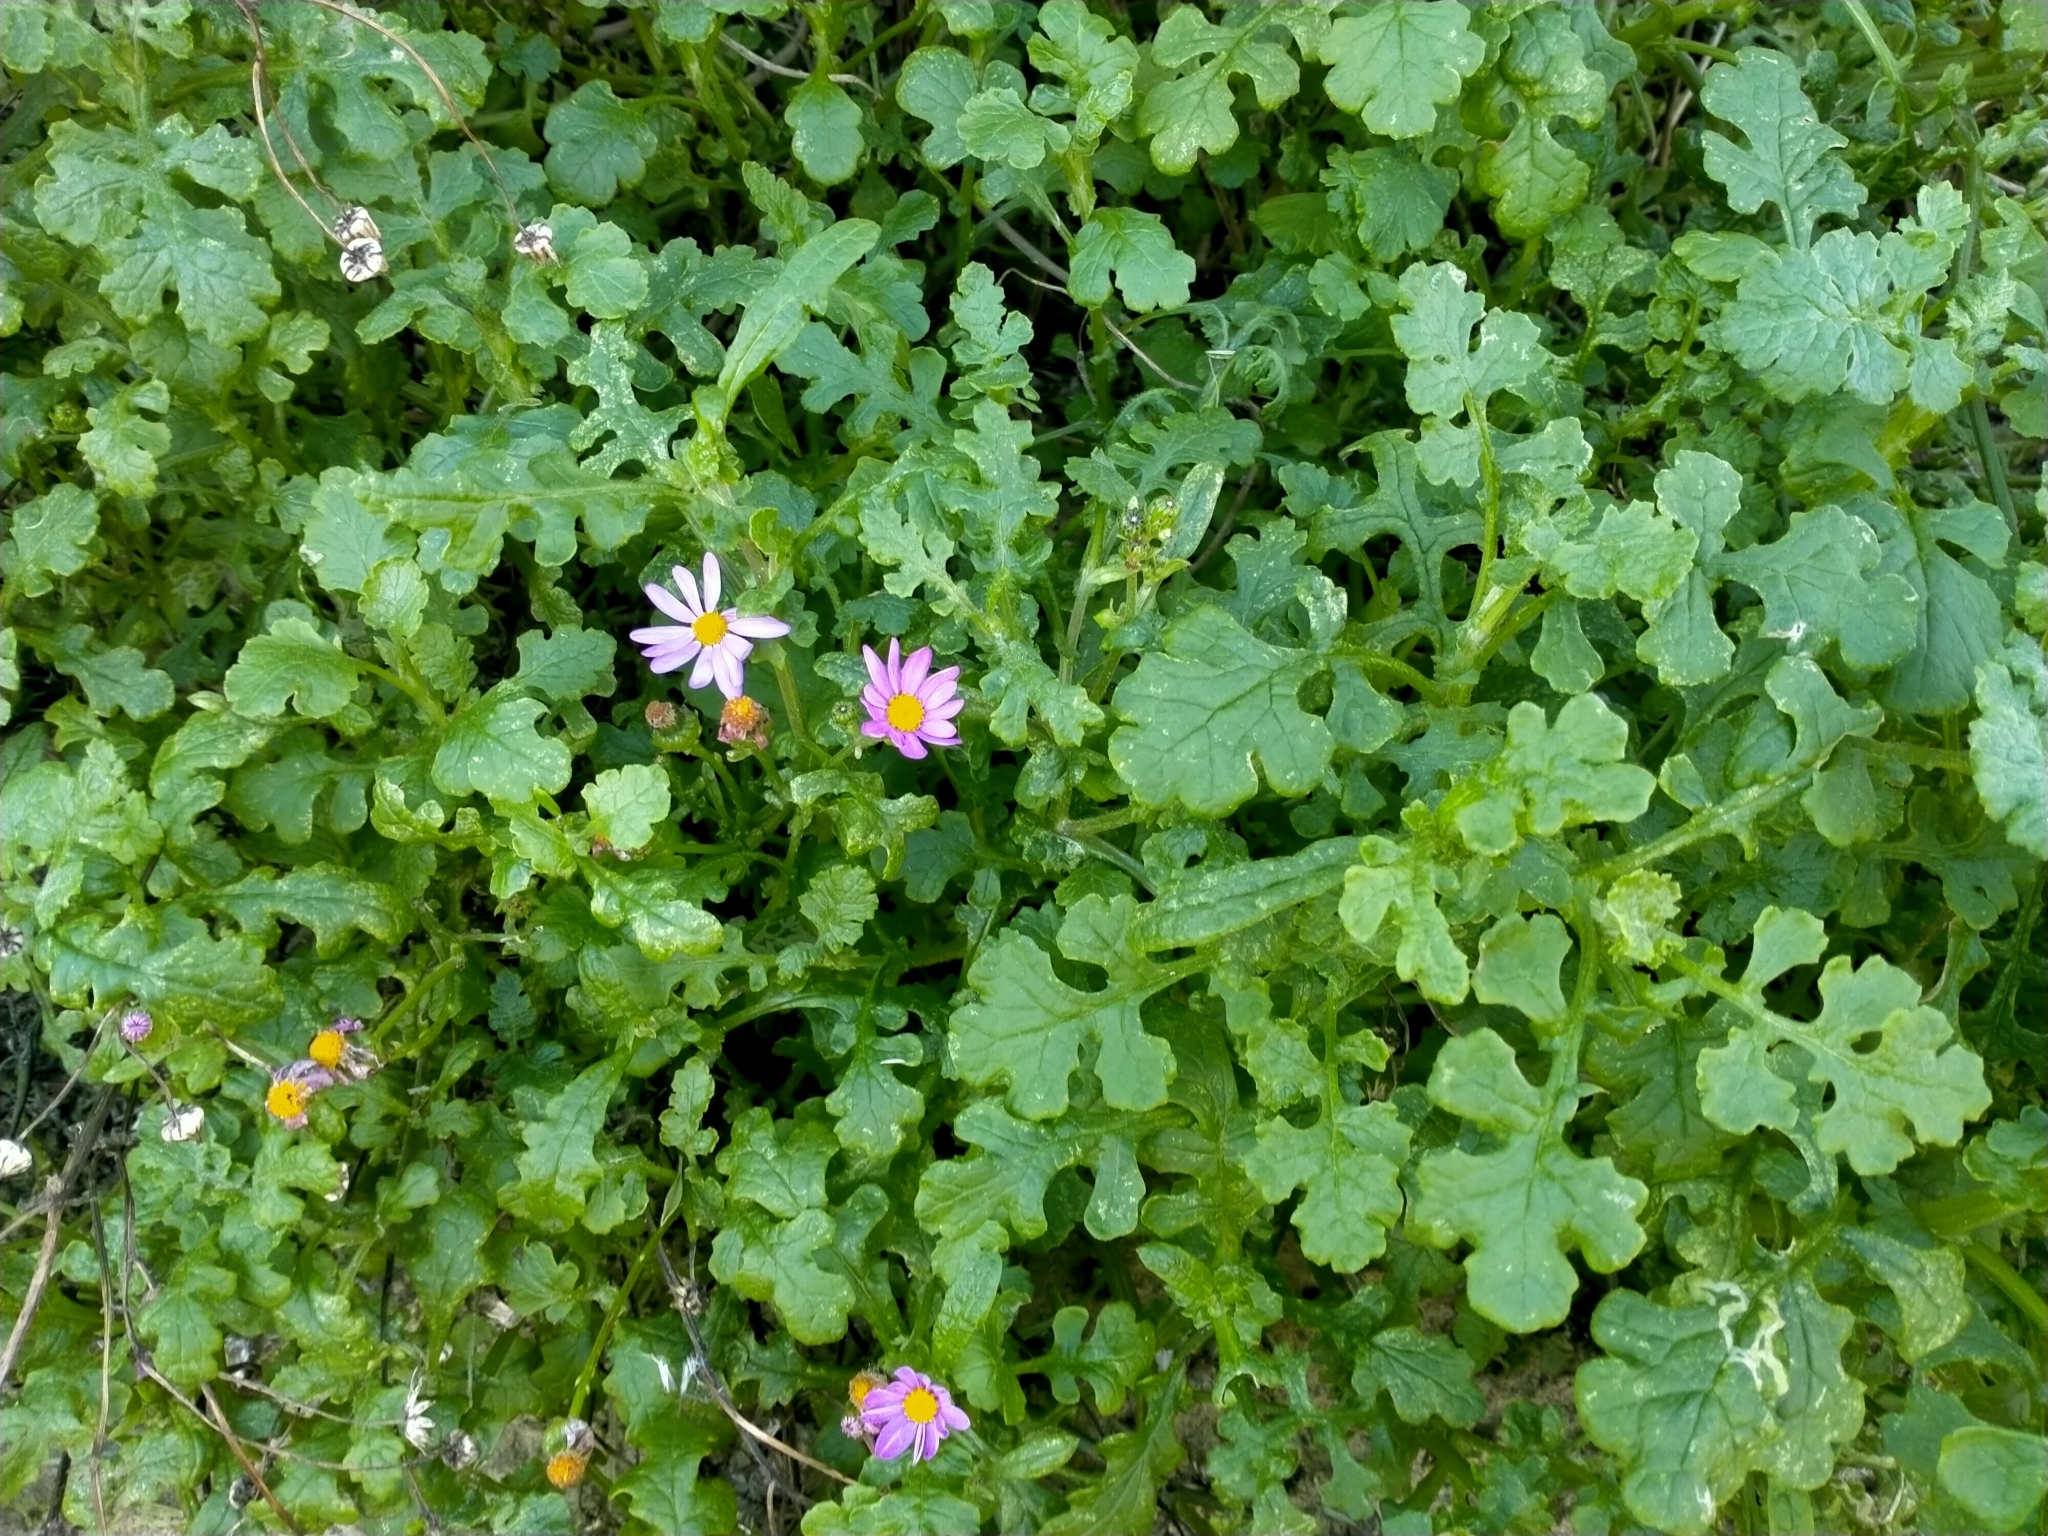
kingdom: Plantae
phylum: Tracheophyta
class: Magnoliopsida
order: Asterales
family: Asteraceae
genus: Senecio
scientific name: Senecio elegans
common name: Purple groundsel
